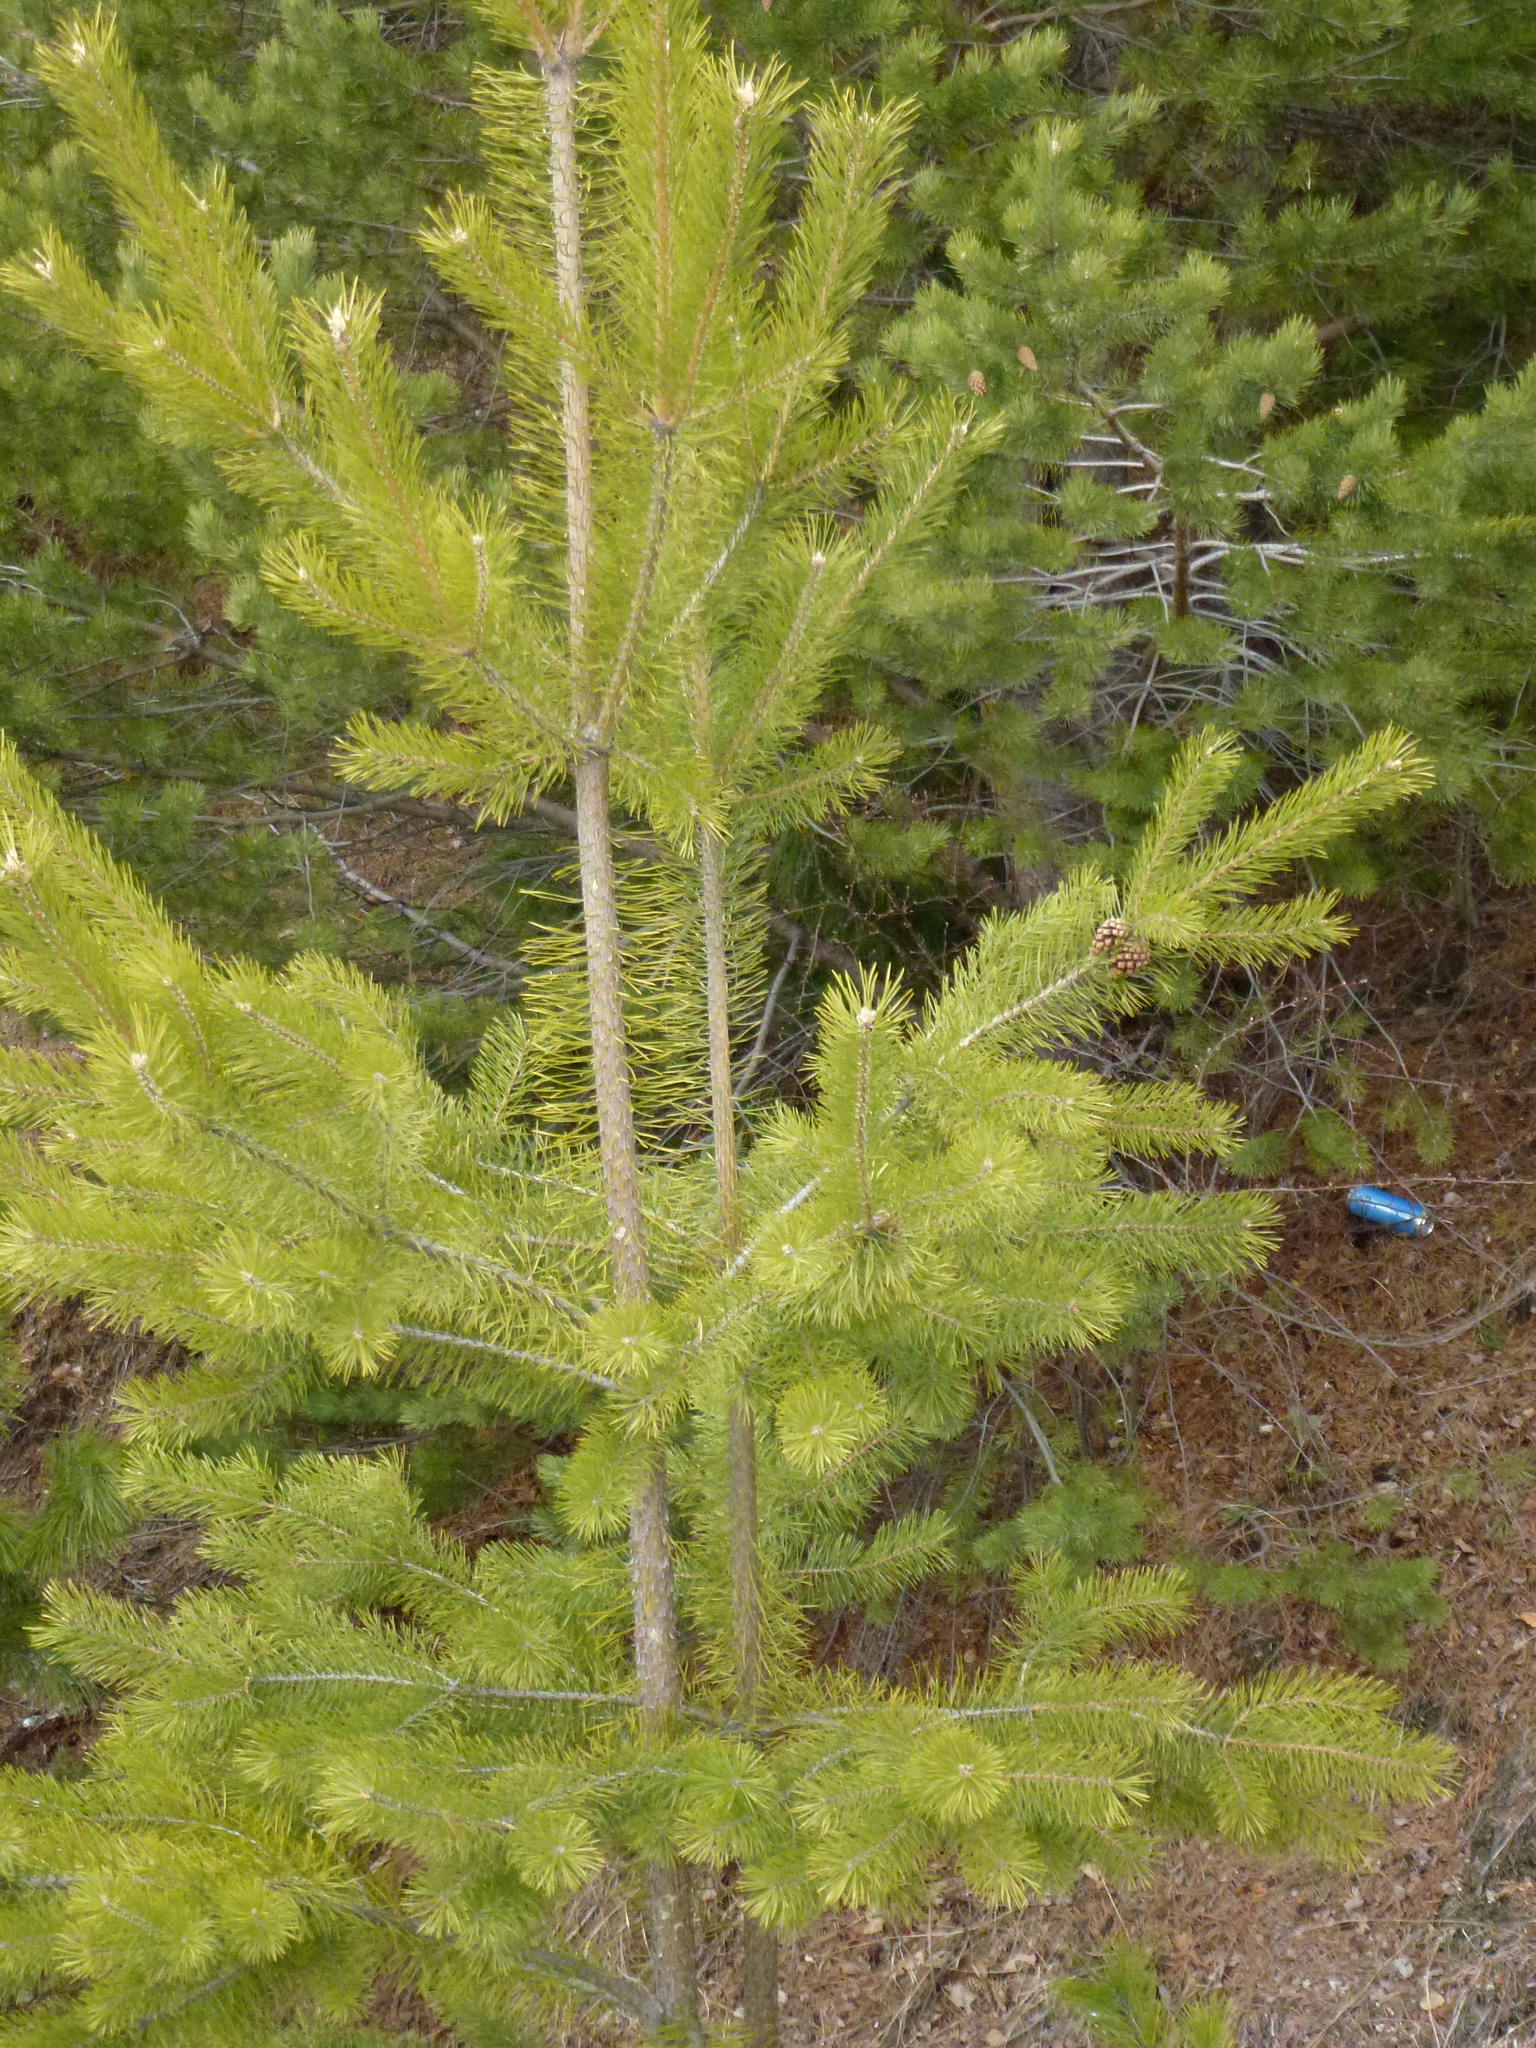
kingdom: Plantae
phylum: Tracheophyta
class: Pinopsida
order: Pinales
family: Pinaceae
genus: Pinus
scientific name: Pinus sylvestris
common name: Scots pine
